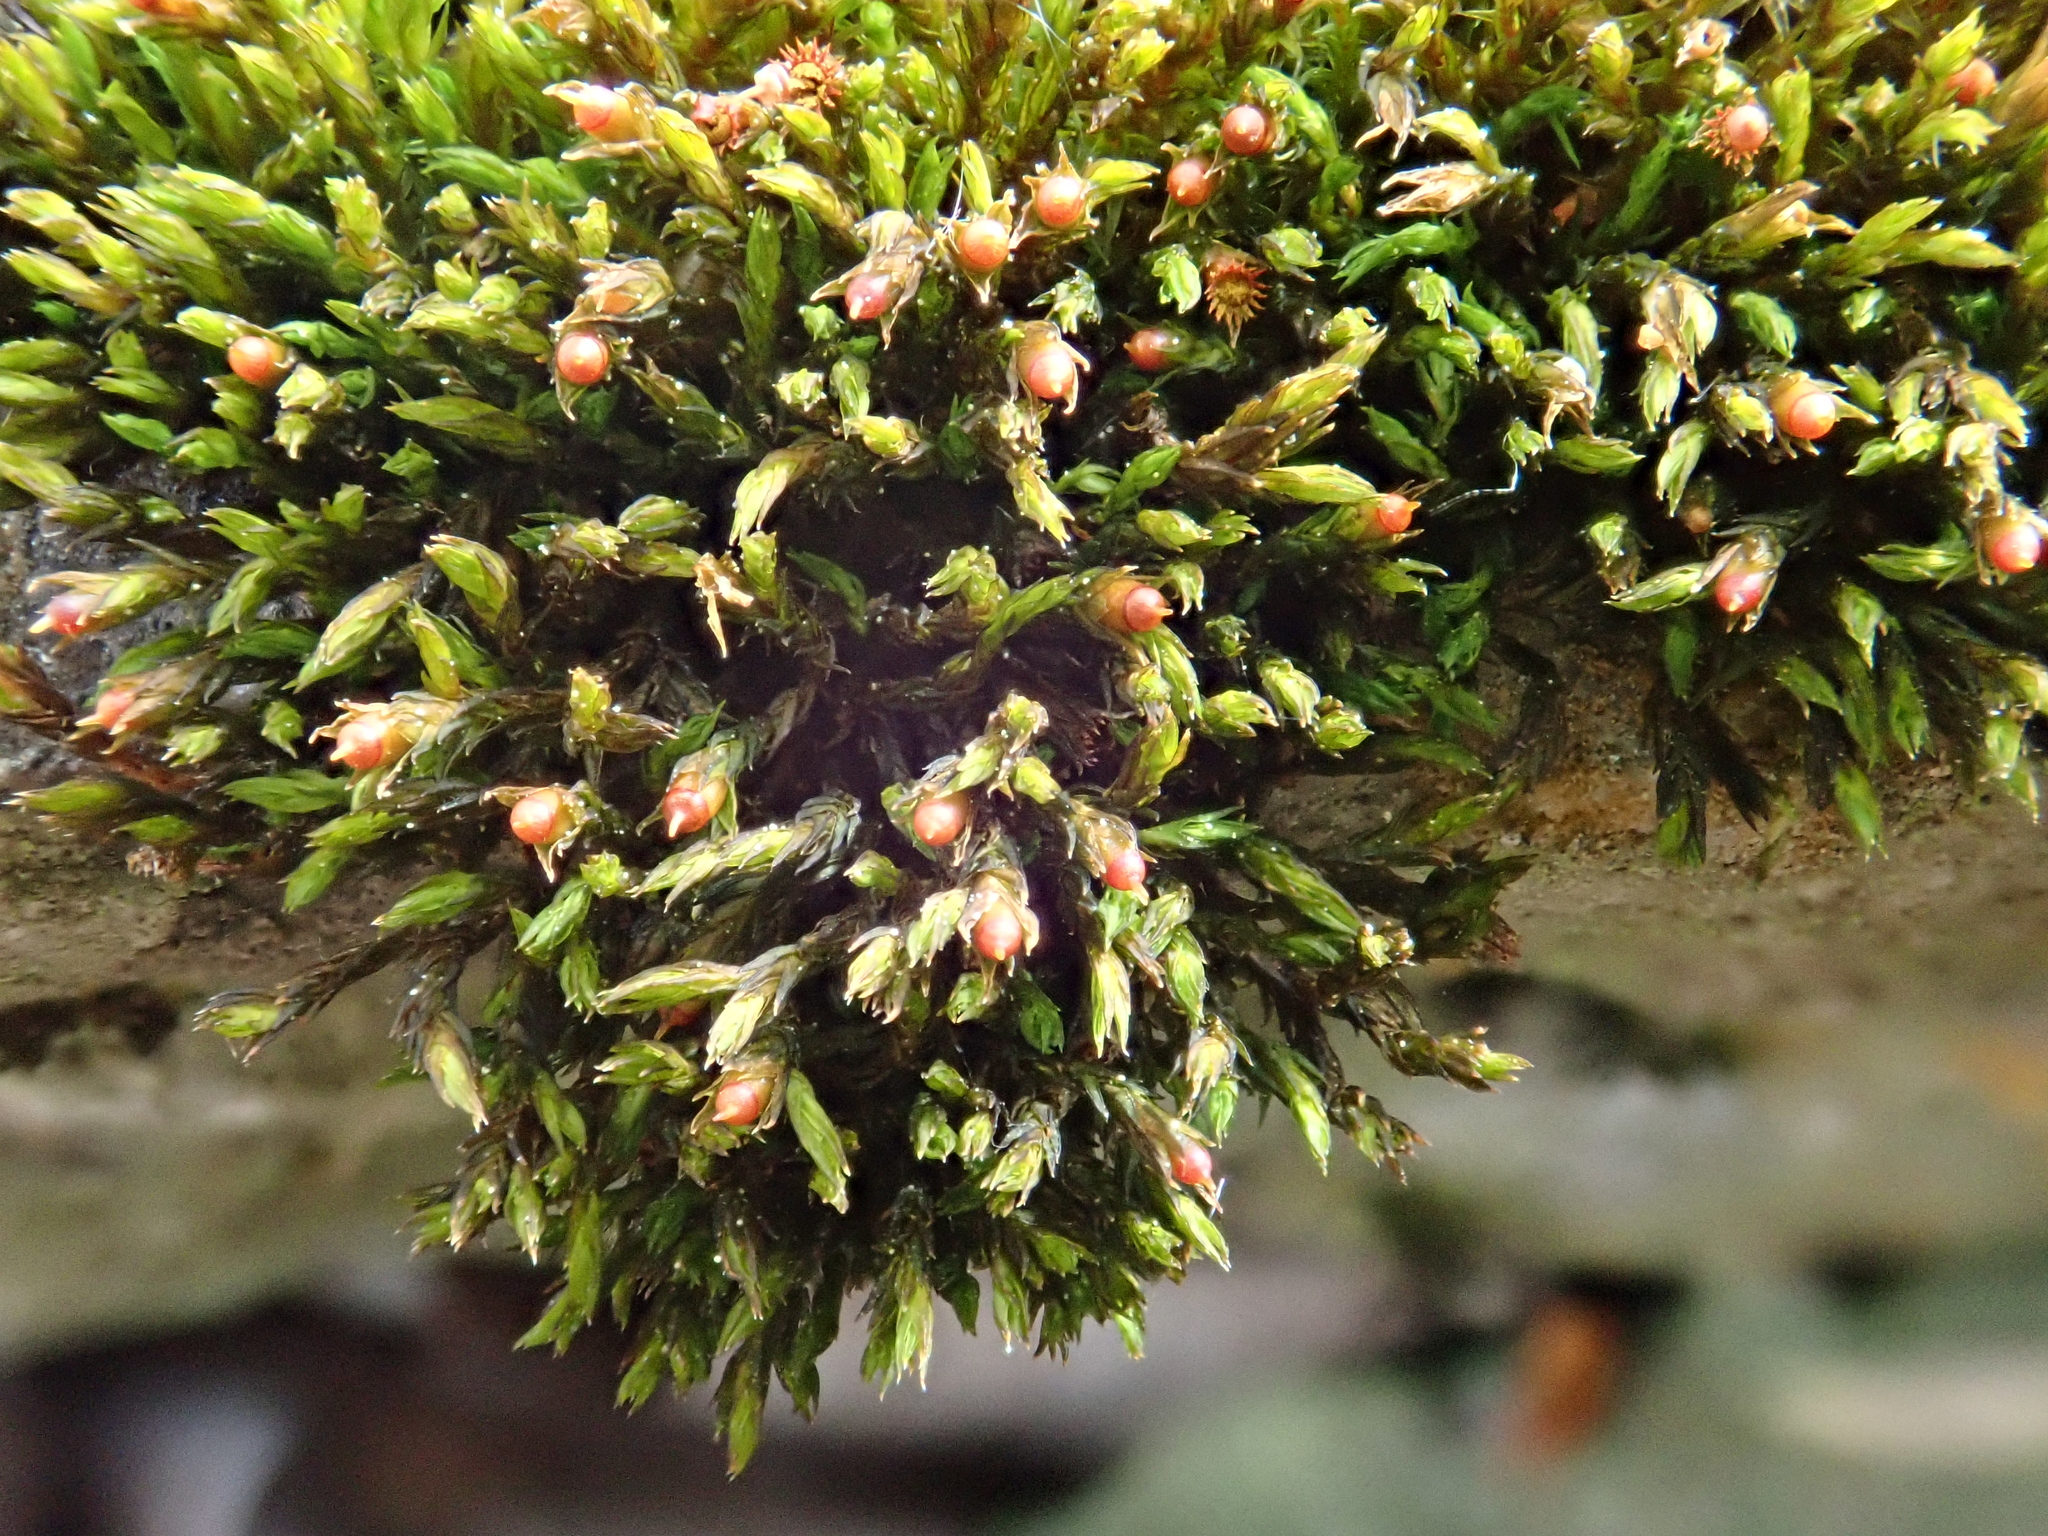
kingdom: Plantae
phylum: Bryophyta
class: Bryopsida
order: Grimmiales
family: Grimmiaceae
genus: Schistidium
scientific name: Schistidium apocarpum
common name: Radiate bloom moss
